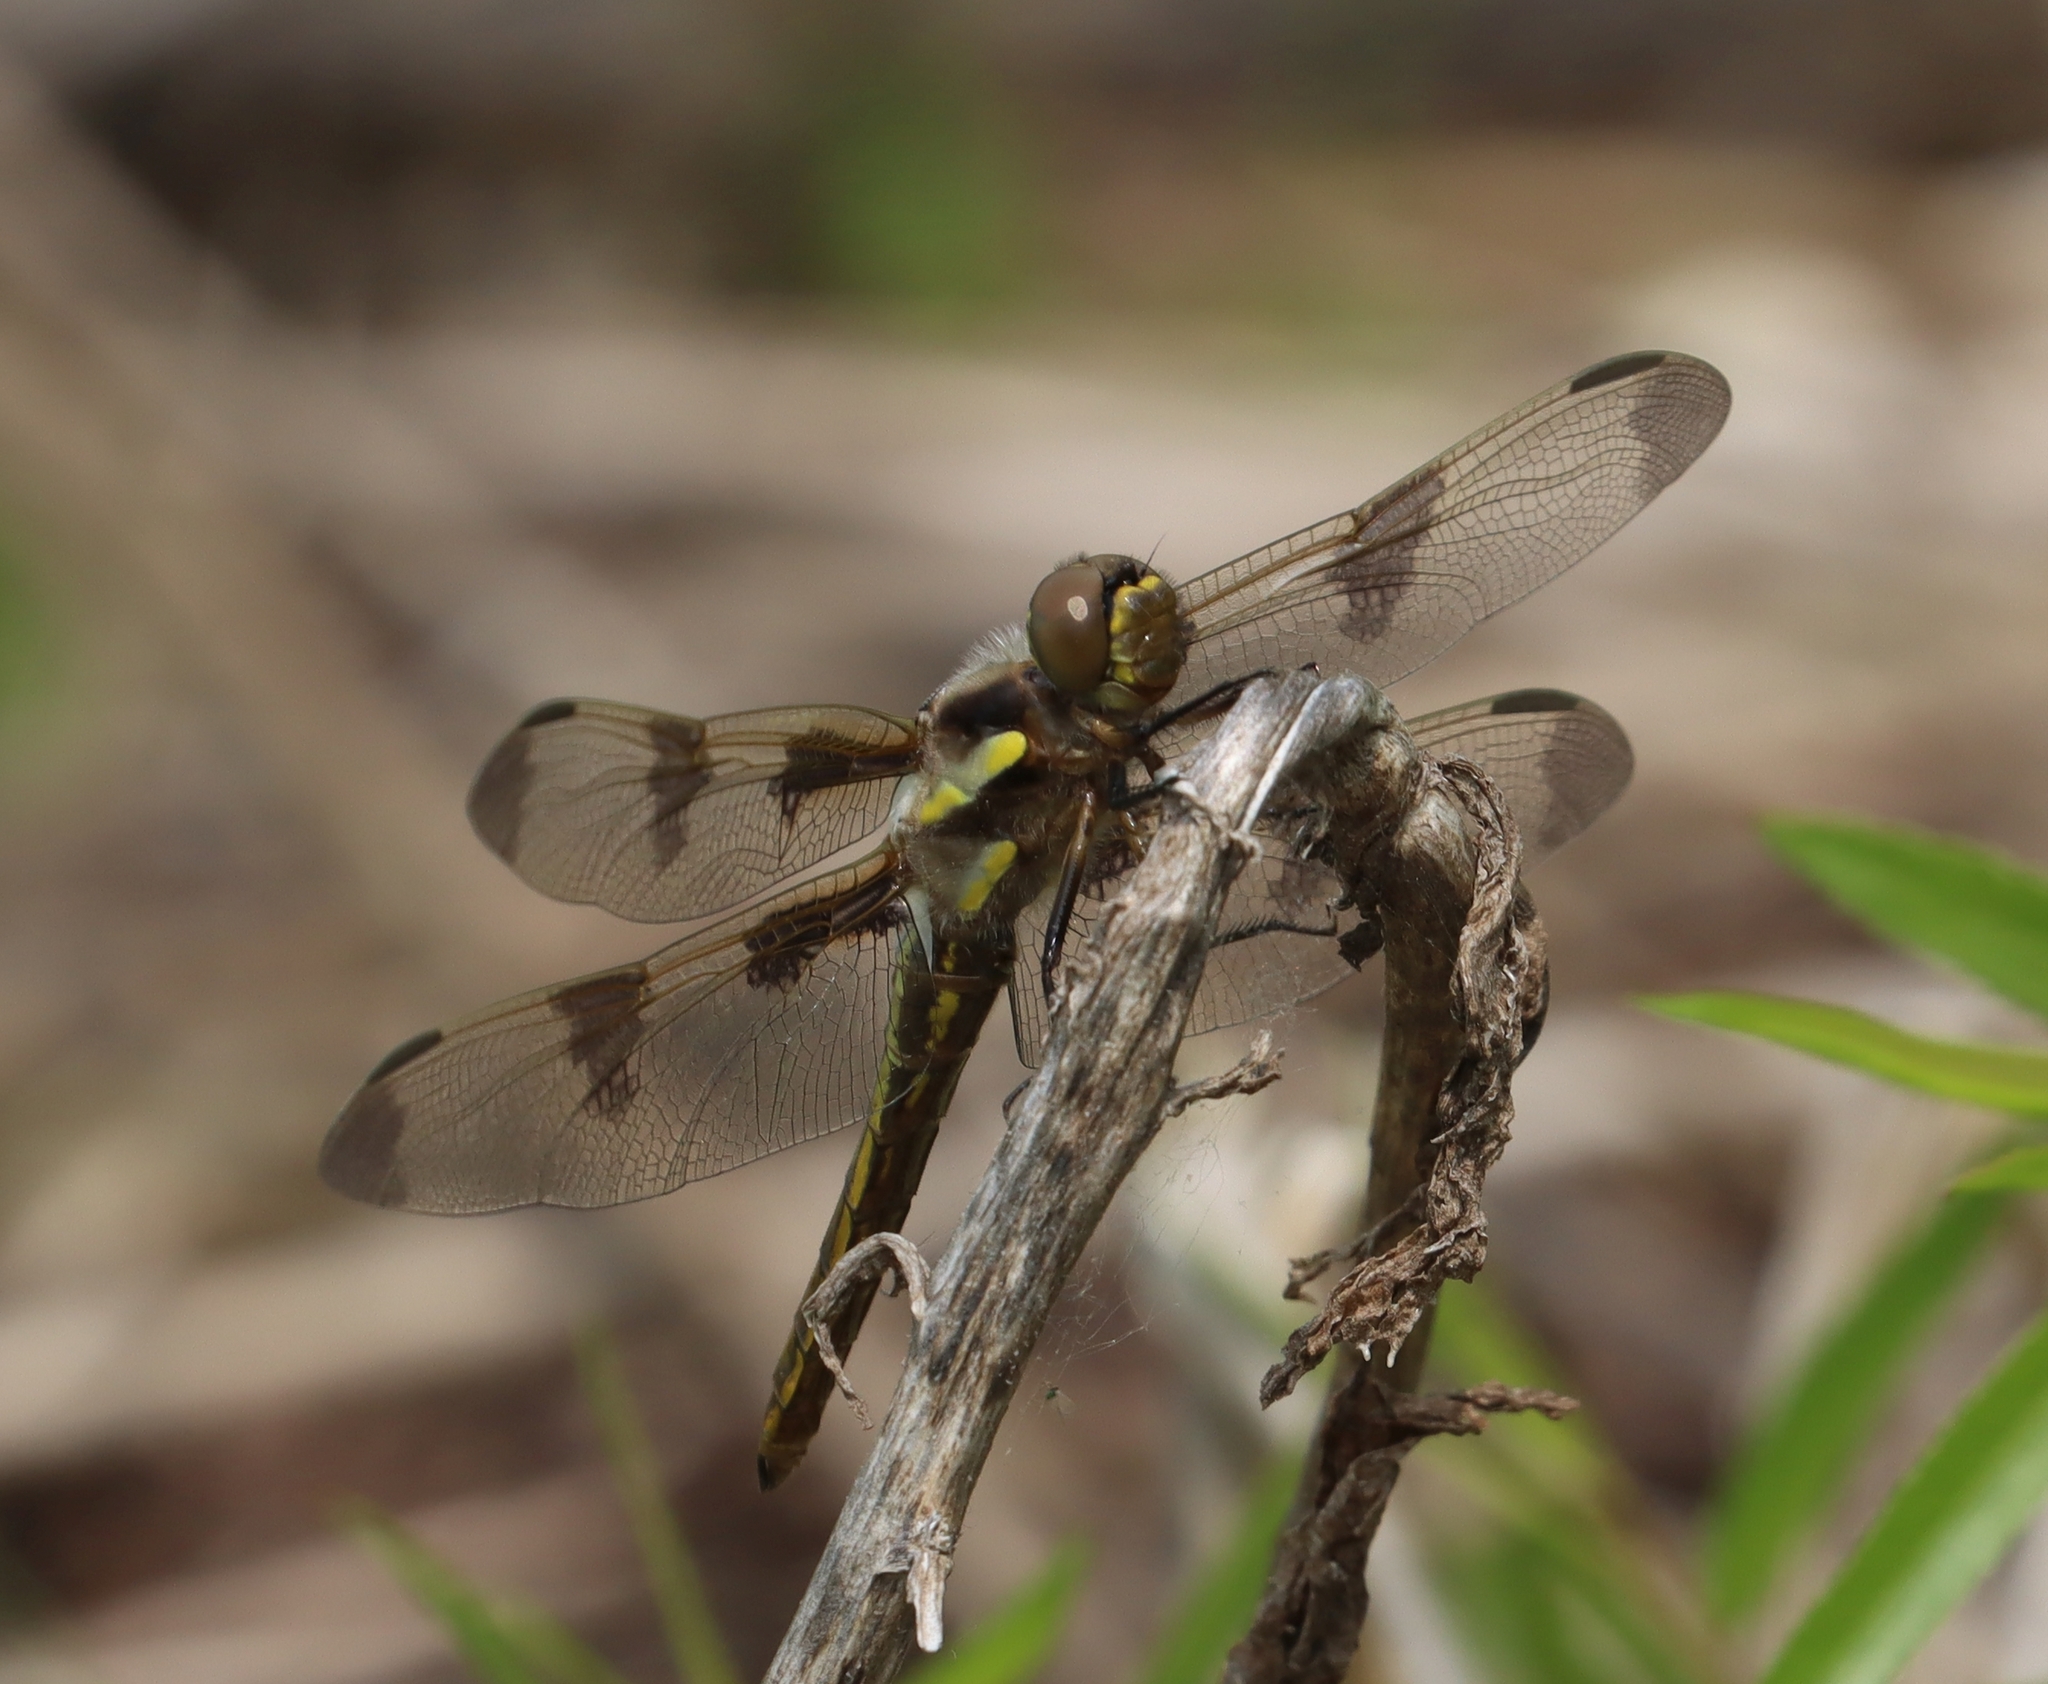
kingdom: Animalia
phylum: Arthropoda
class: Insecta
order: Odonata
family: Libellulidae
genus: Libellula
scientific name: Libellula pulchella
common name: Twelve-spotted skimmer
